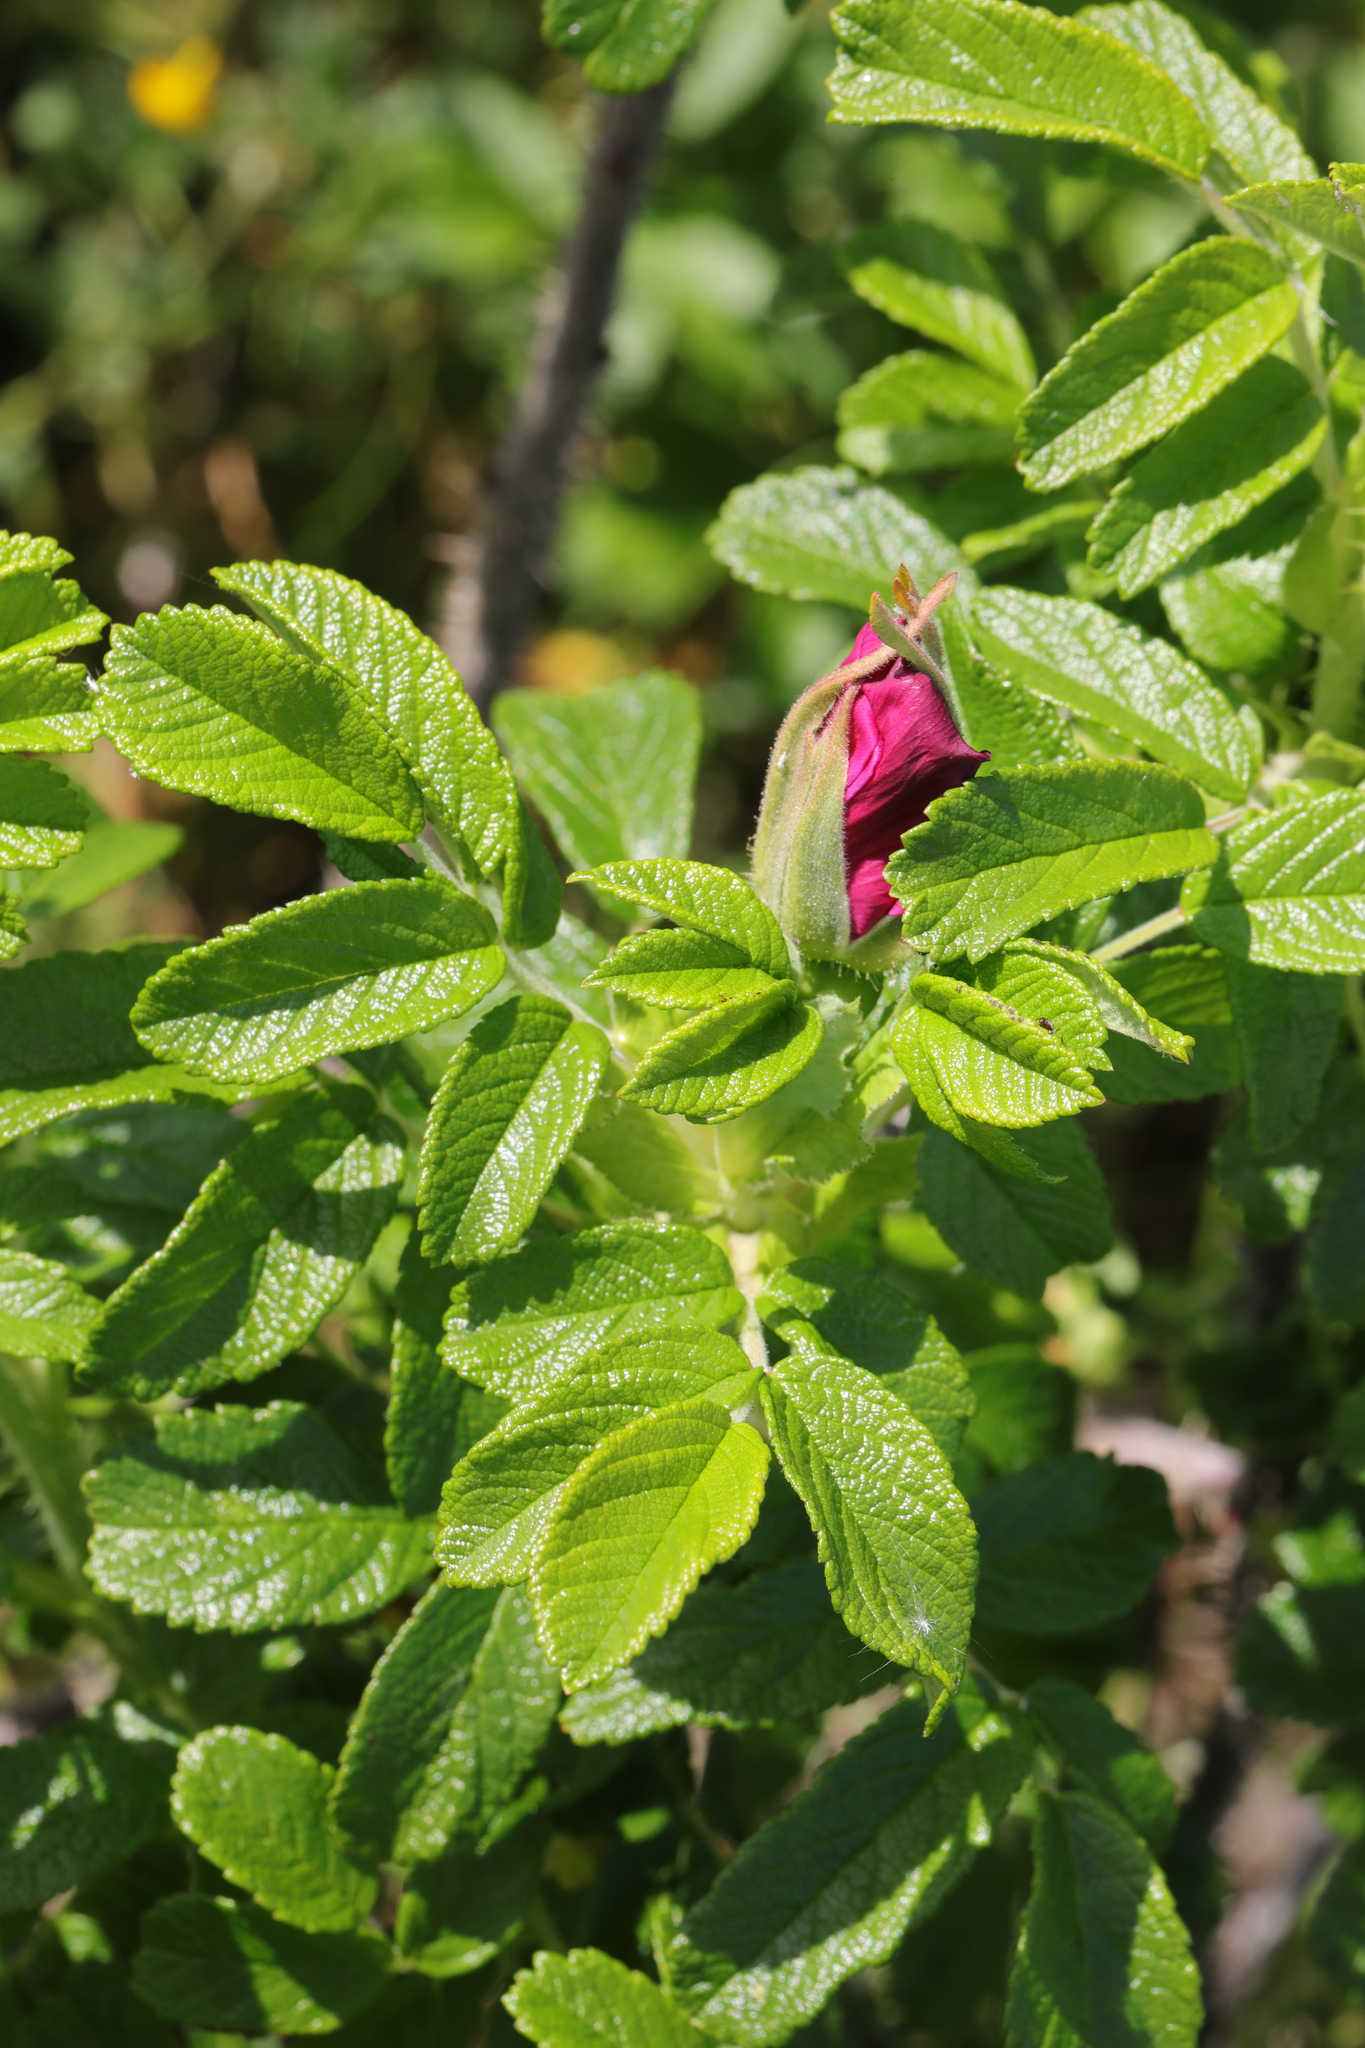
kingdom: Plantae
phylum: Tracheophyta
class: Magnoliopsida
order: Rosales
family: Rosaceae
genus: Rosa
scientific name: Rosa rugosa
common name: Japanese rose
